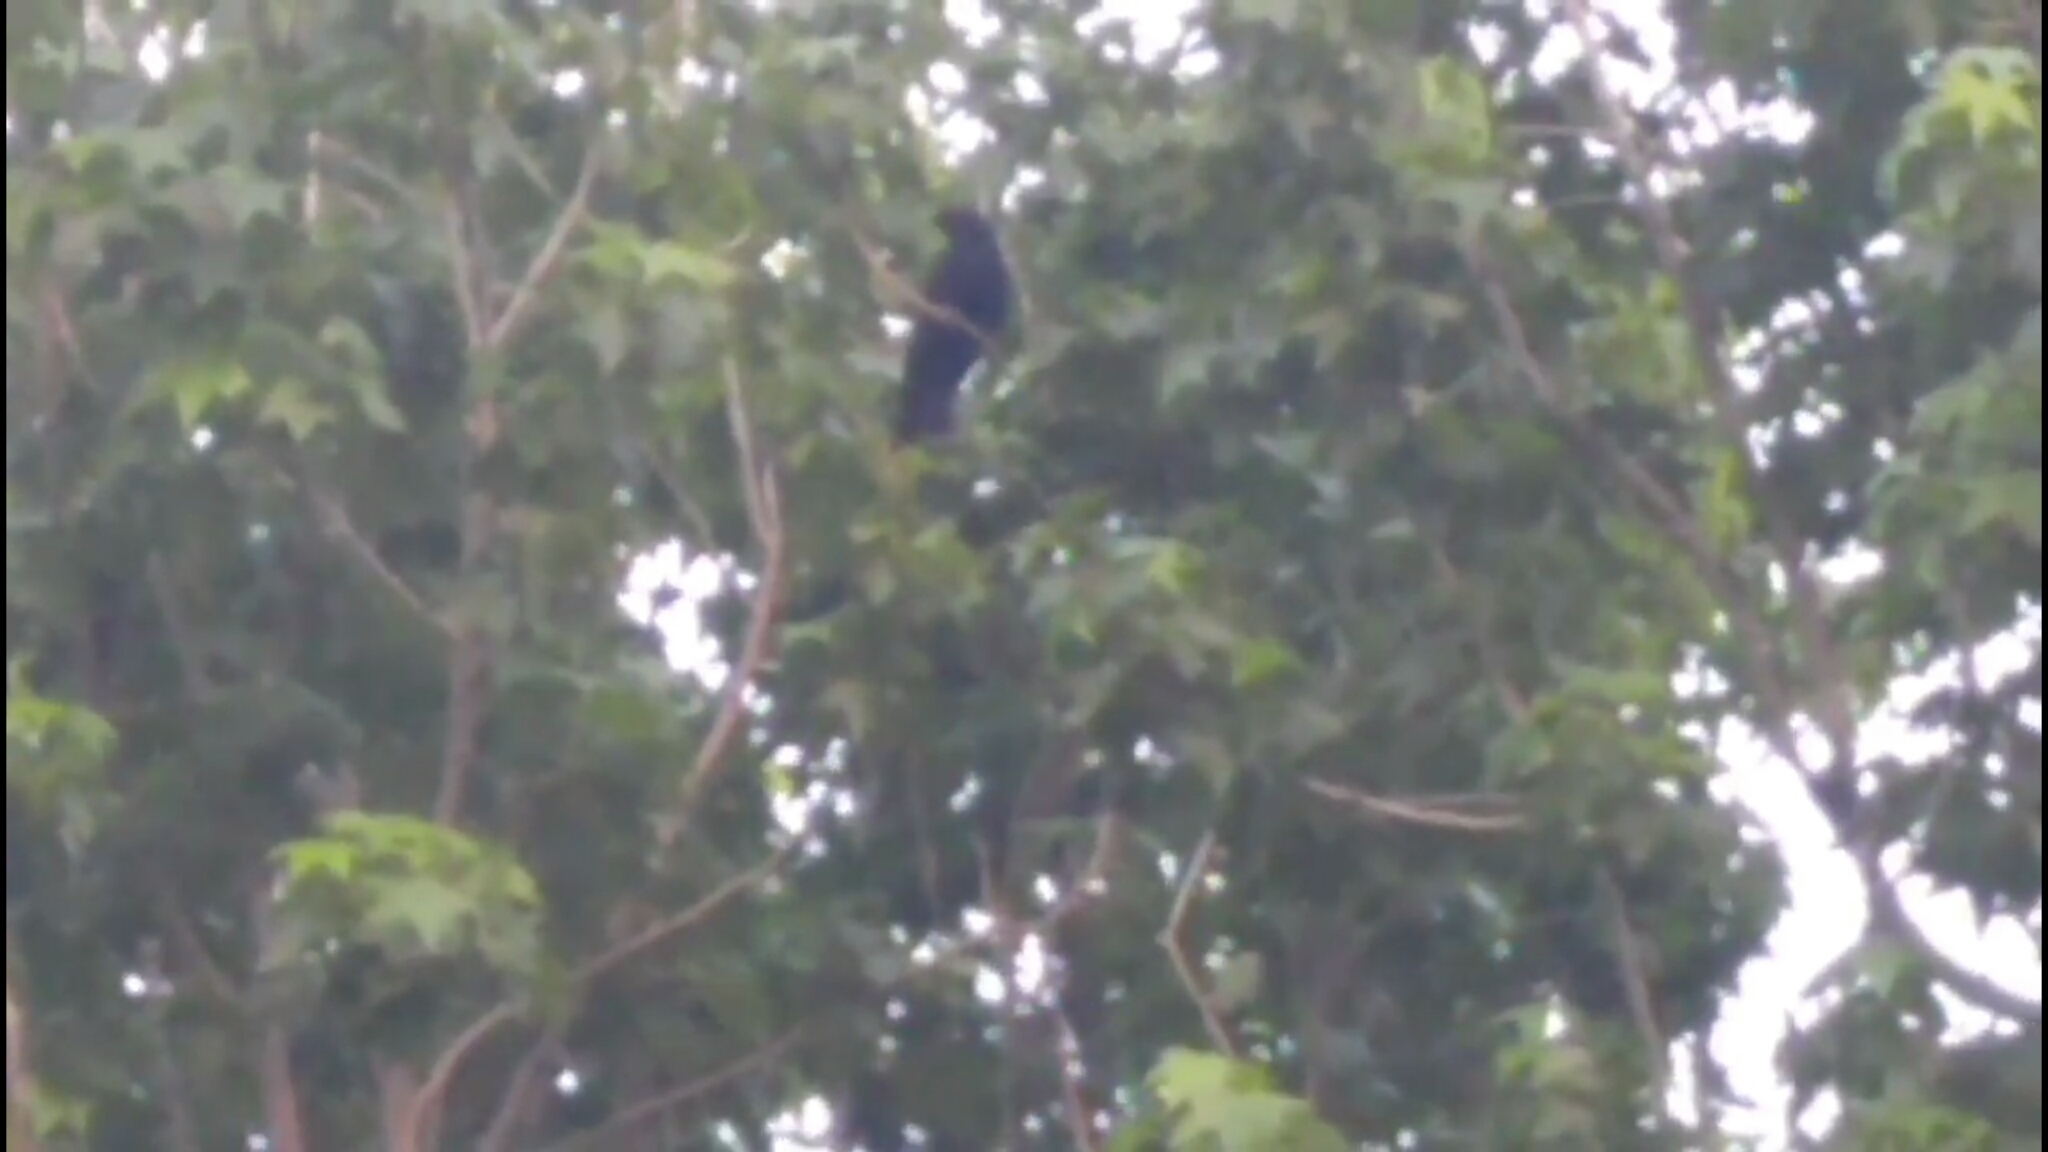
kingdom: Animalia
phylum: Chordata
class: Aves
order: Cuculiformes
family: Cuculidae
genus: Eudynamys
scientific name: Eudynamys orientalis
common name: Pacific koel
